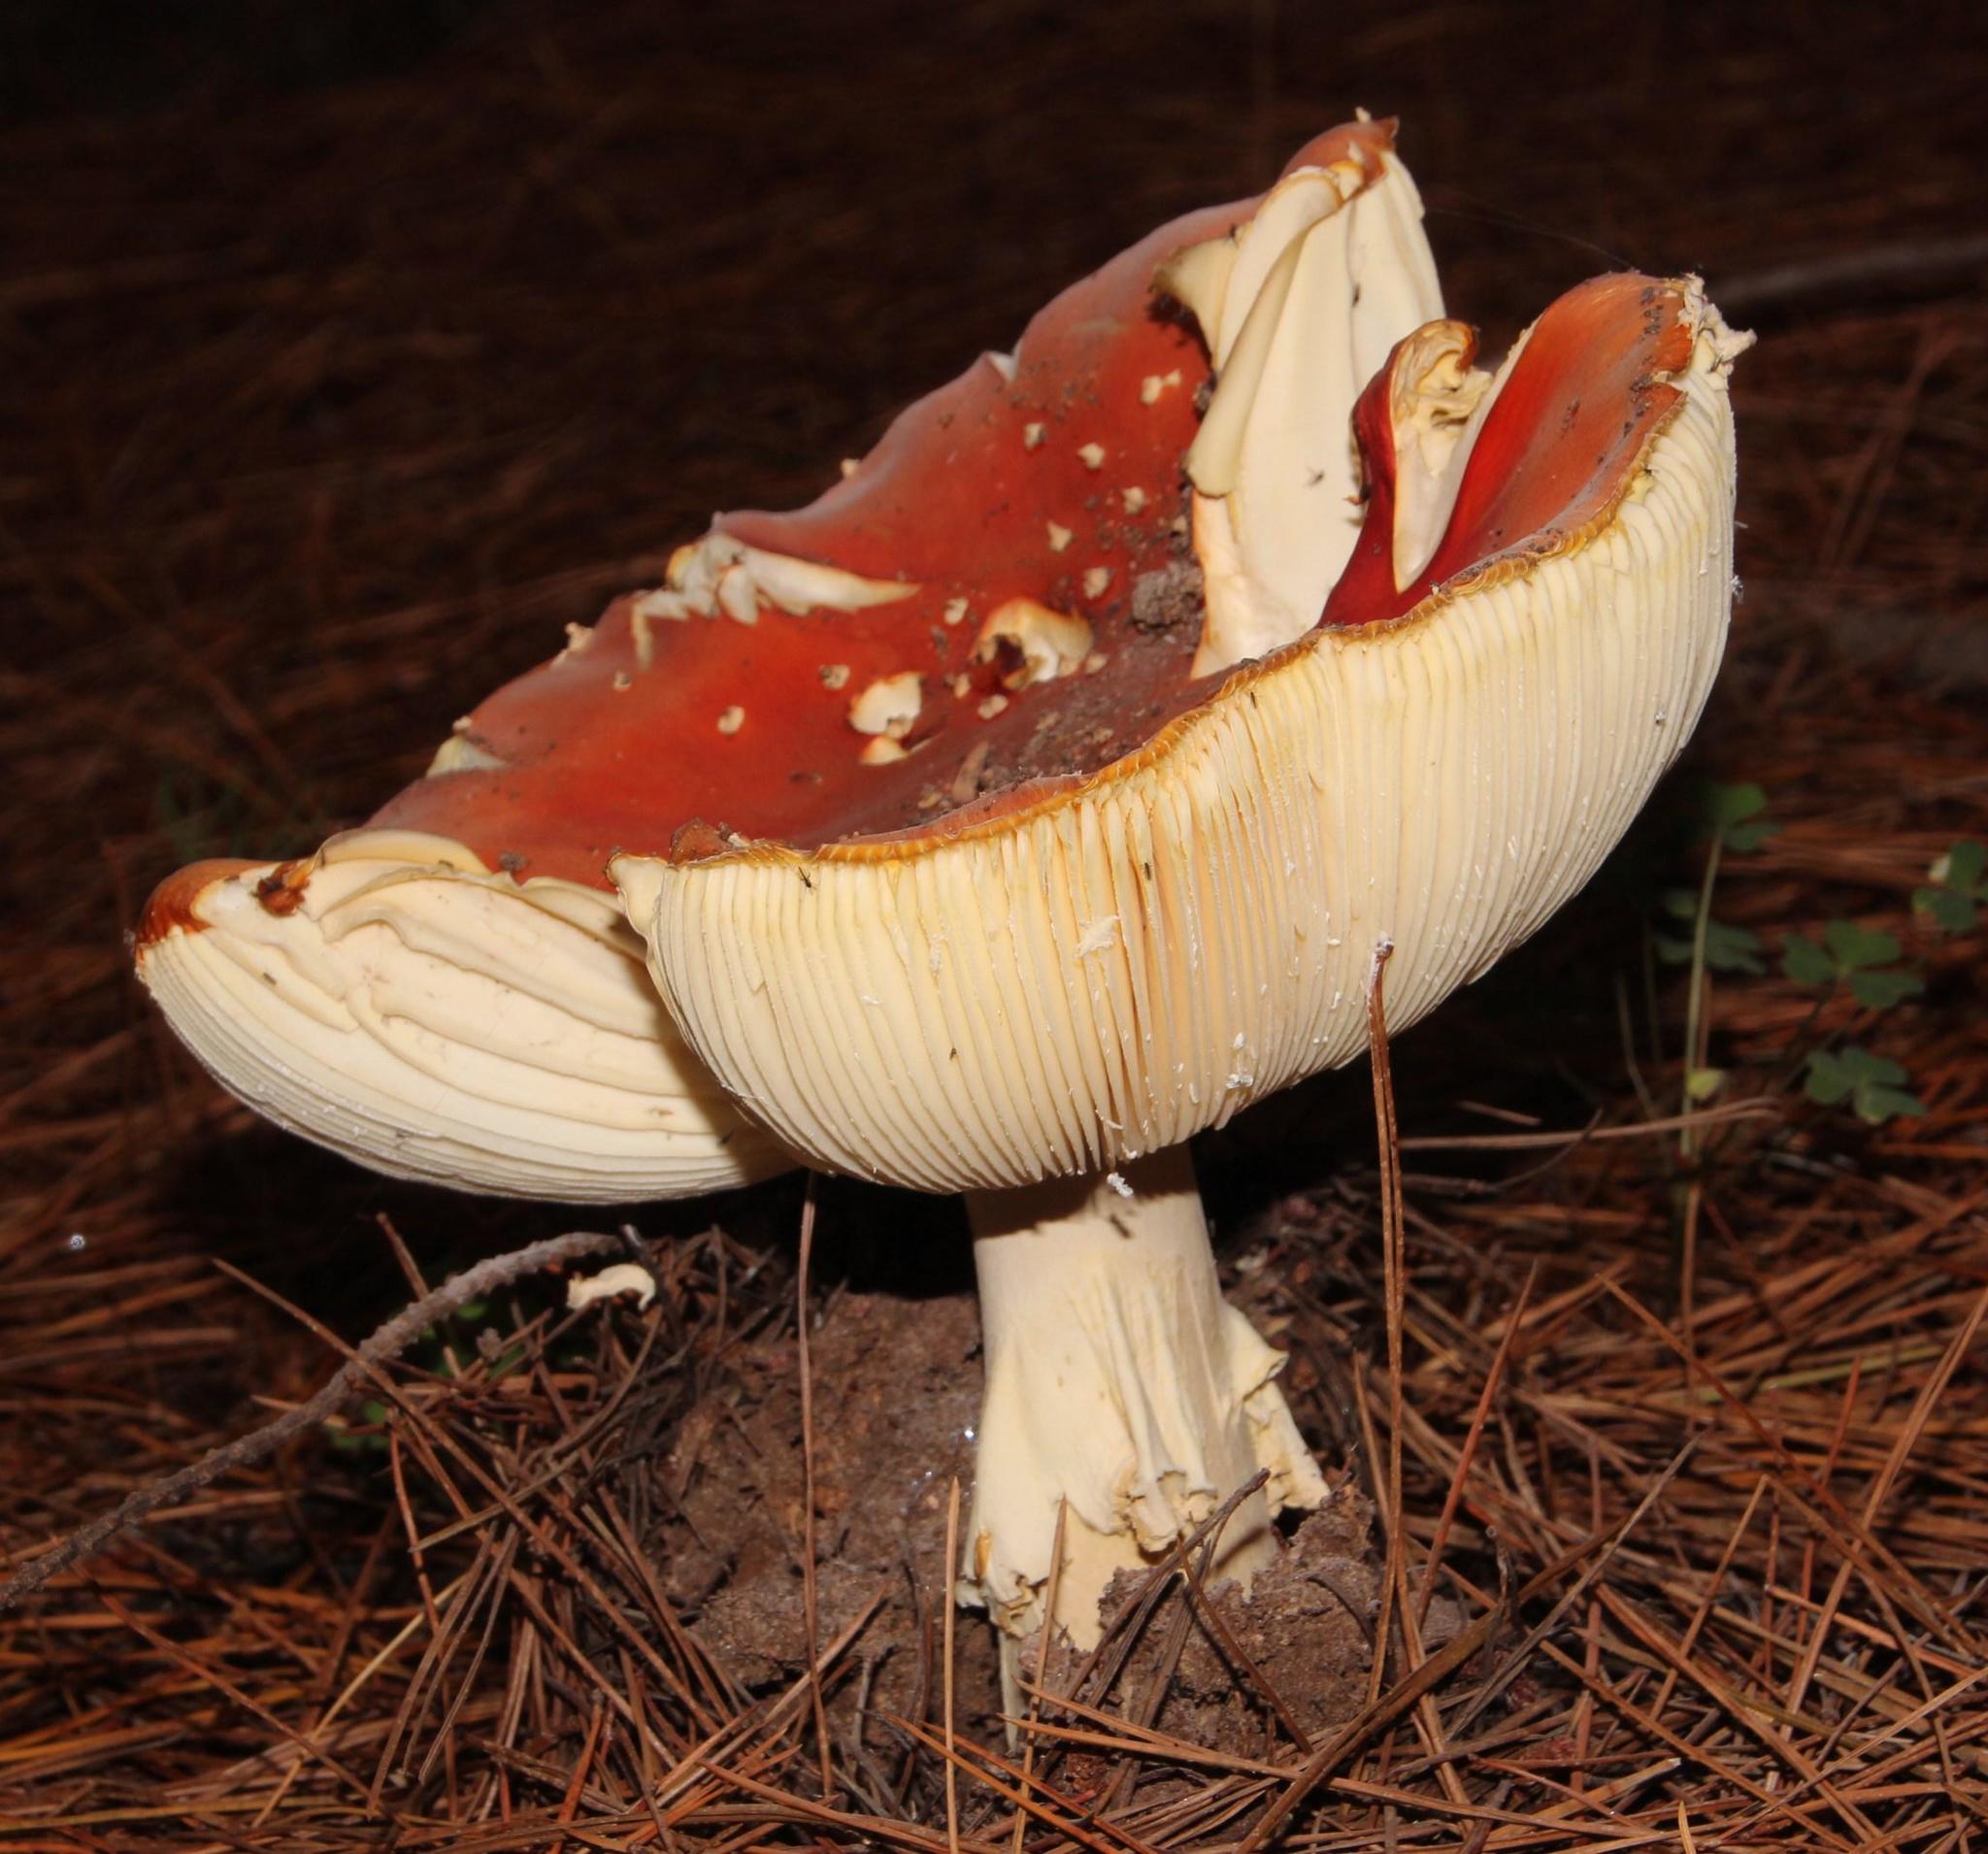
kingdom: Fungi
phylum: Basidiomycota
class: Agaricomycetes
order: Agaricales
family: Amanitaceae
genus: Amanita
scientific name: Amanita muscaria
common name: Fly agaric
